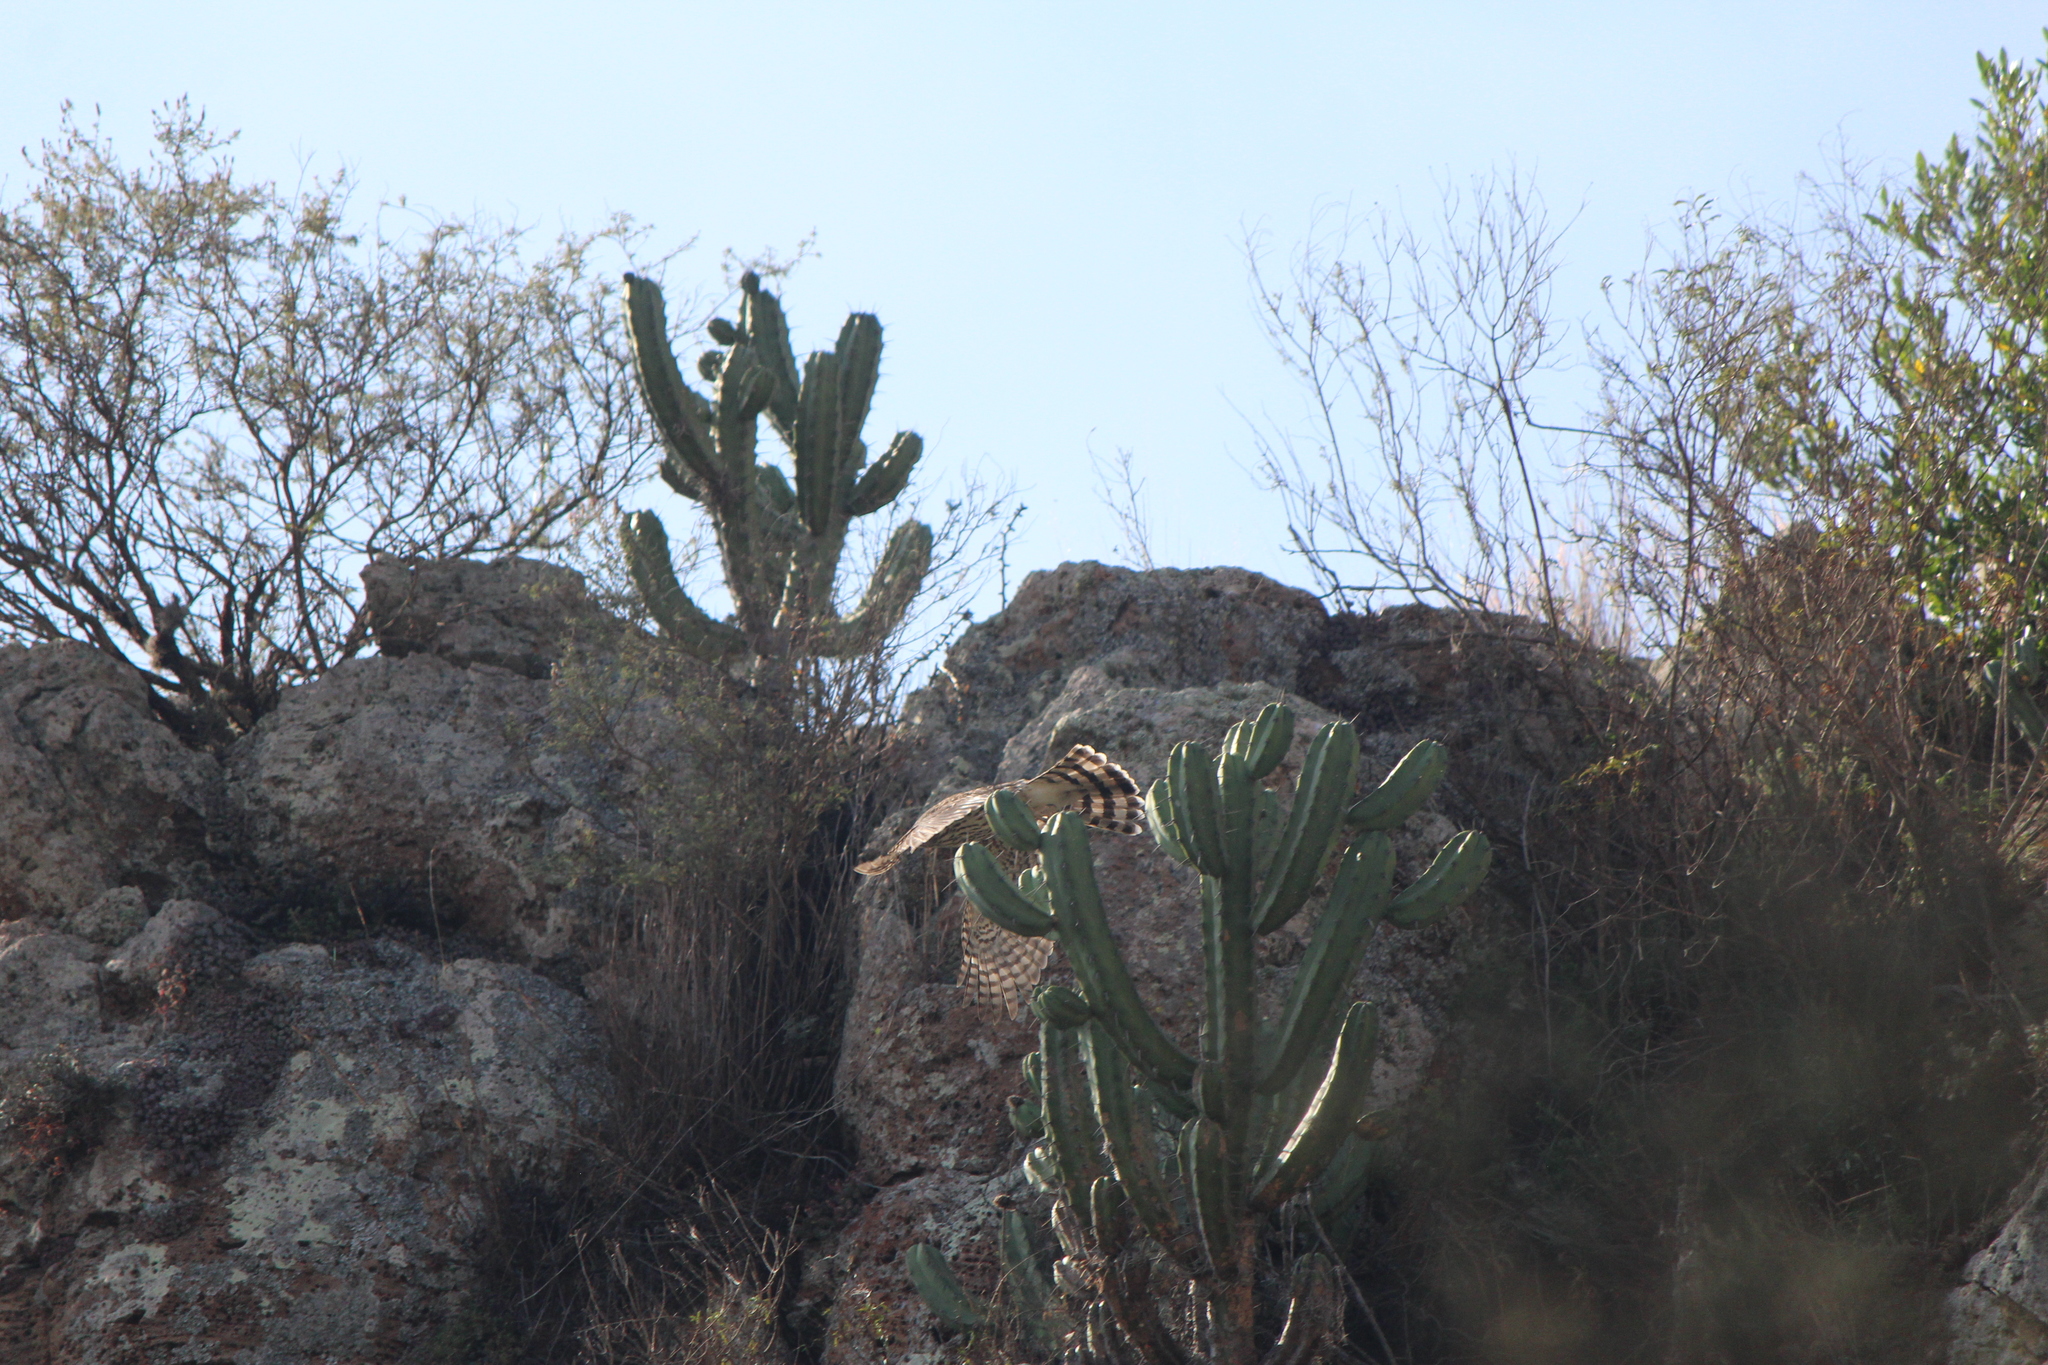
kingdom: Animalia
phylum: Chordata
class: Aves
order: Accipitriformes
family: Accipitridae
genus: Accipiter
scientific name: Accipiter cooperii
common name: Cooper's hawk
